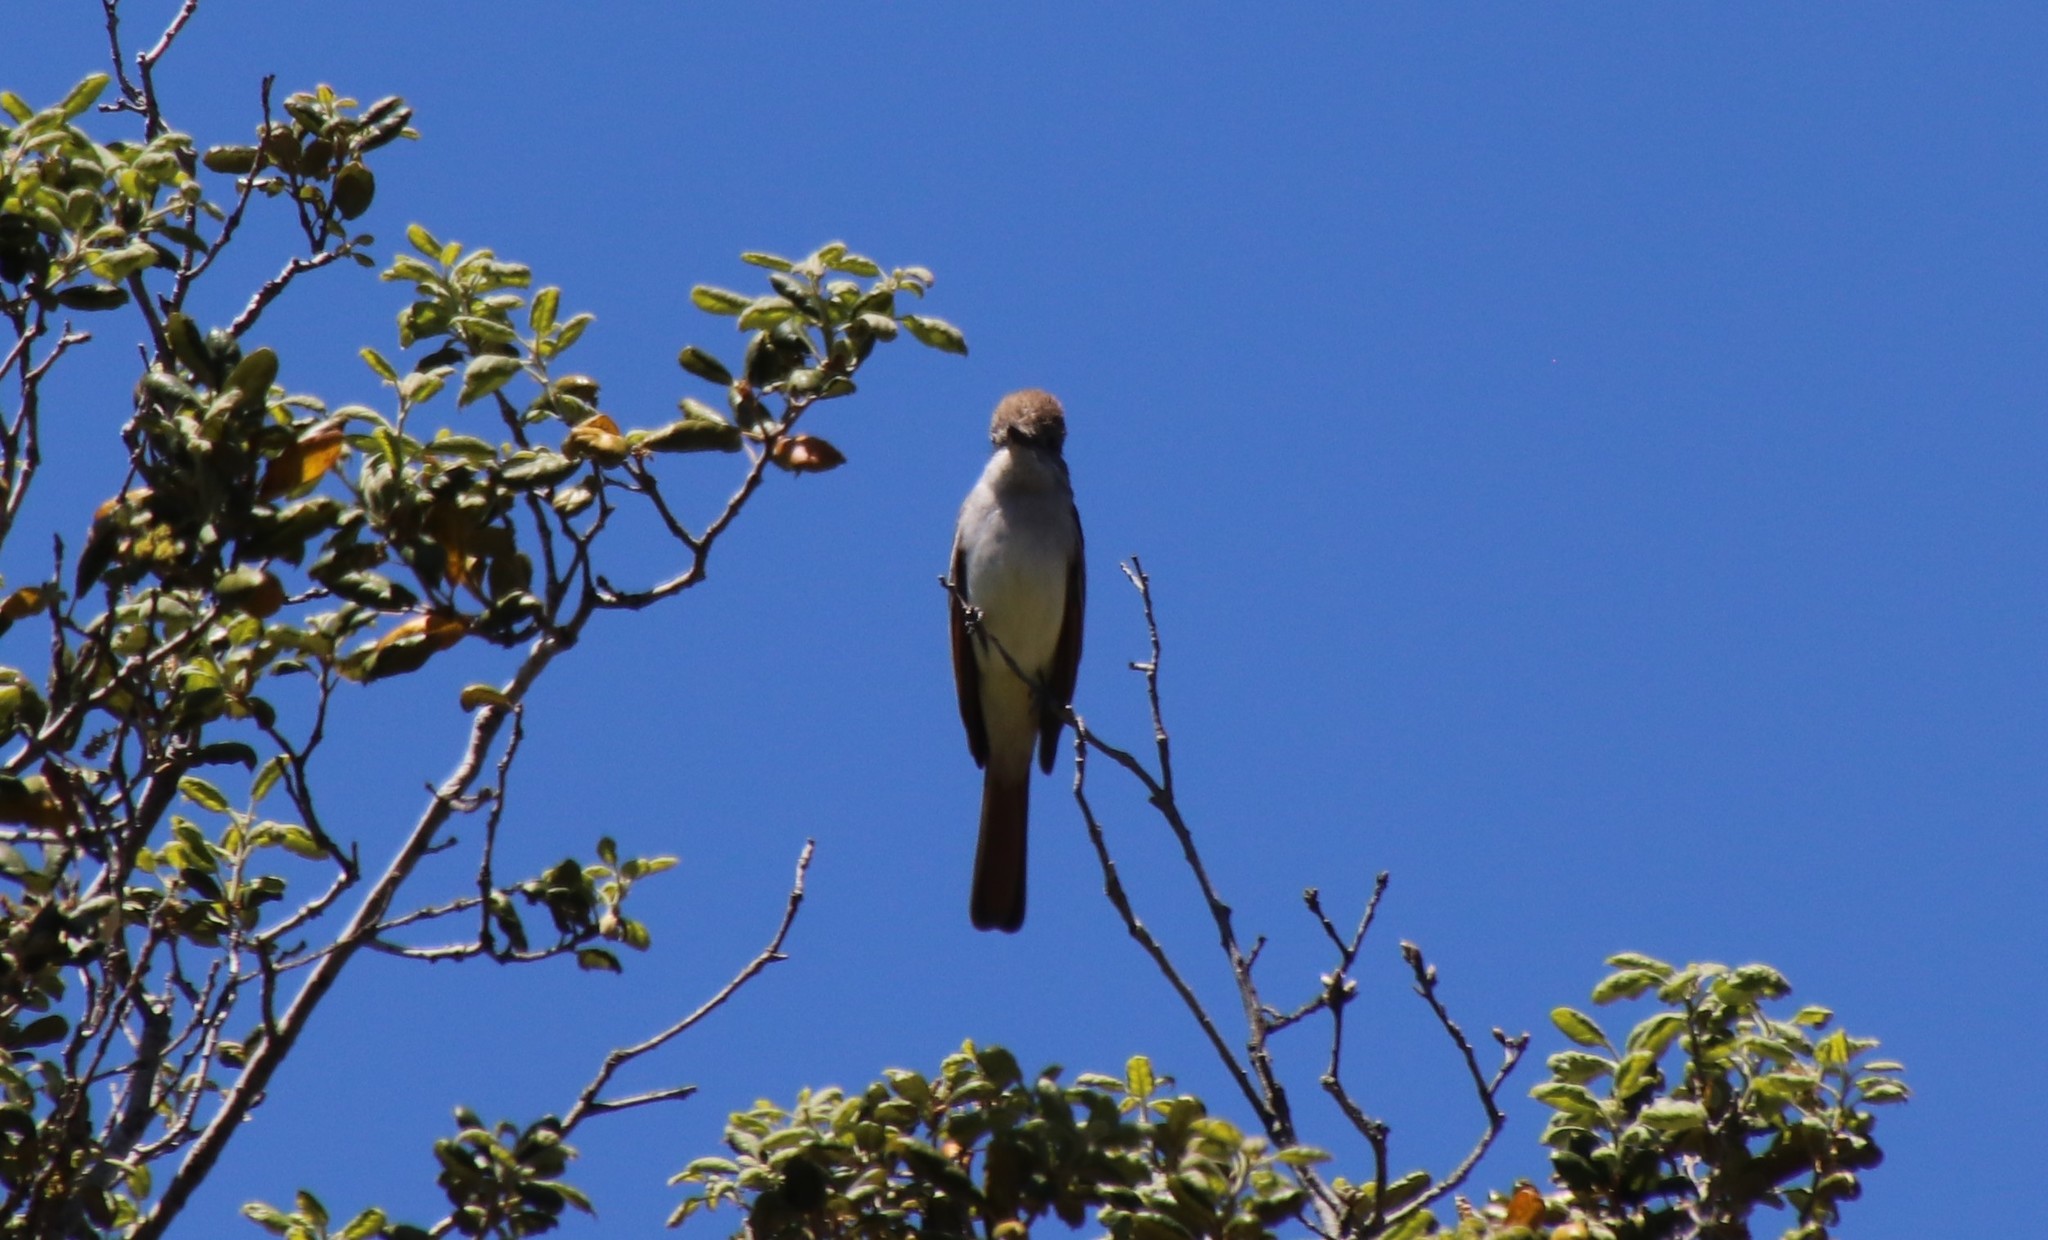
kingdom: Animalia
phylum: Chordata
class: Aves
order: Passeriformes
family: Tyrannidae
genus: Myiarchus
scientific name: Myiarchus cinerascens
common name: Ash-throated flycatcher
